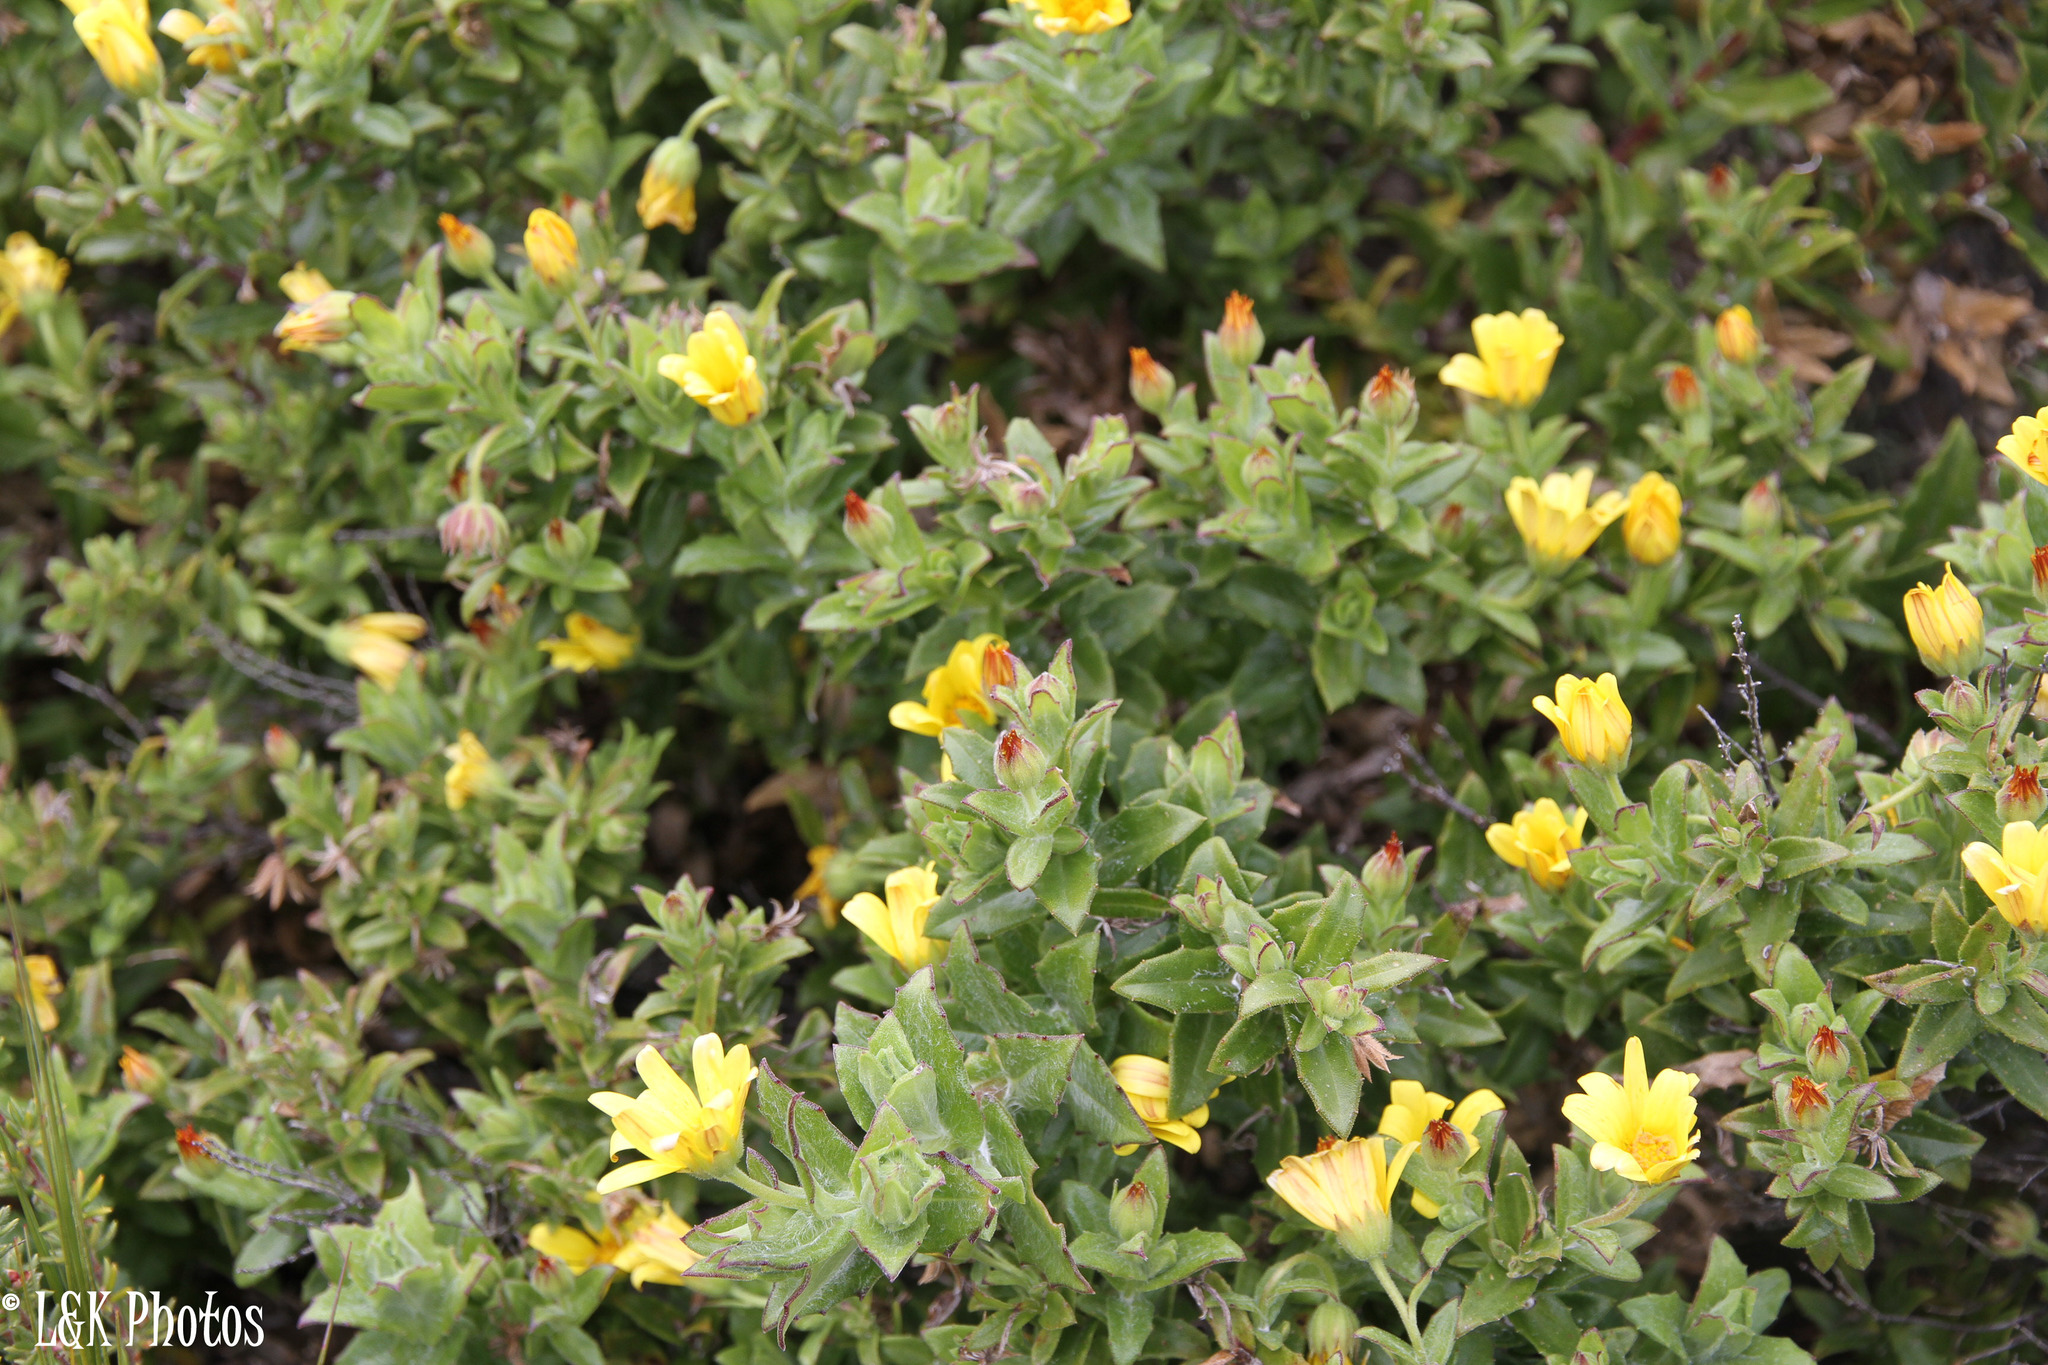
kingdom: Plantae
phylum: Tracheophyta
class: Magnoliopsida
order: Asterales
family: Asteraceae
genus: Osteospermum
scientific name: Osteospermum ilicifolium
